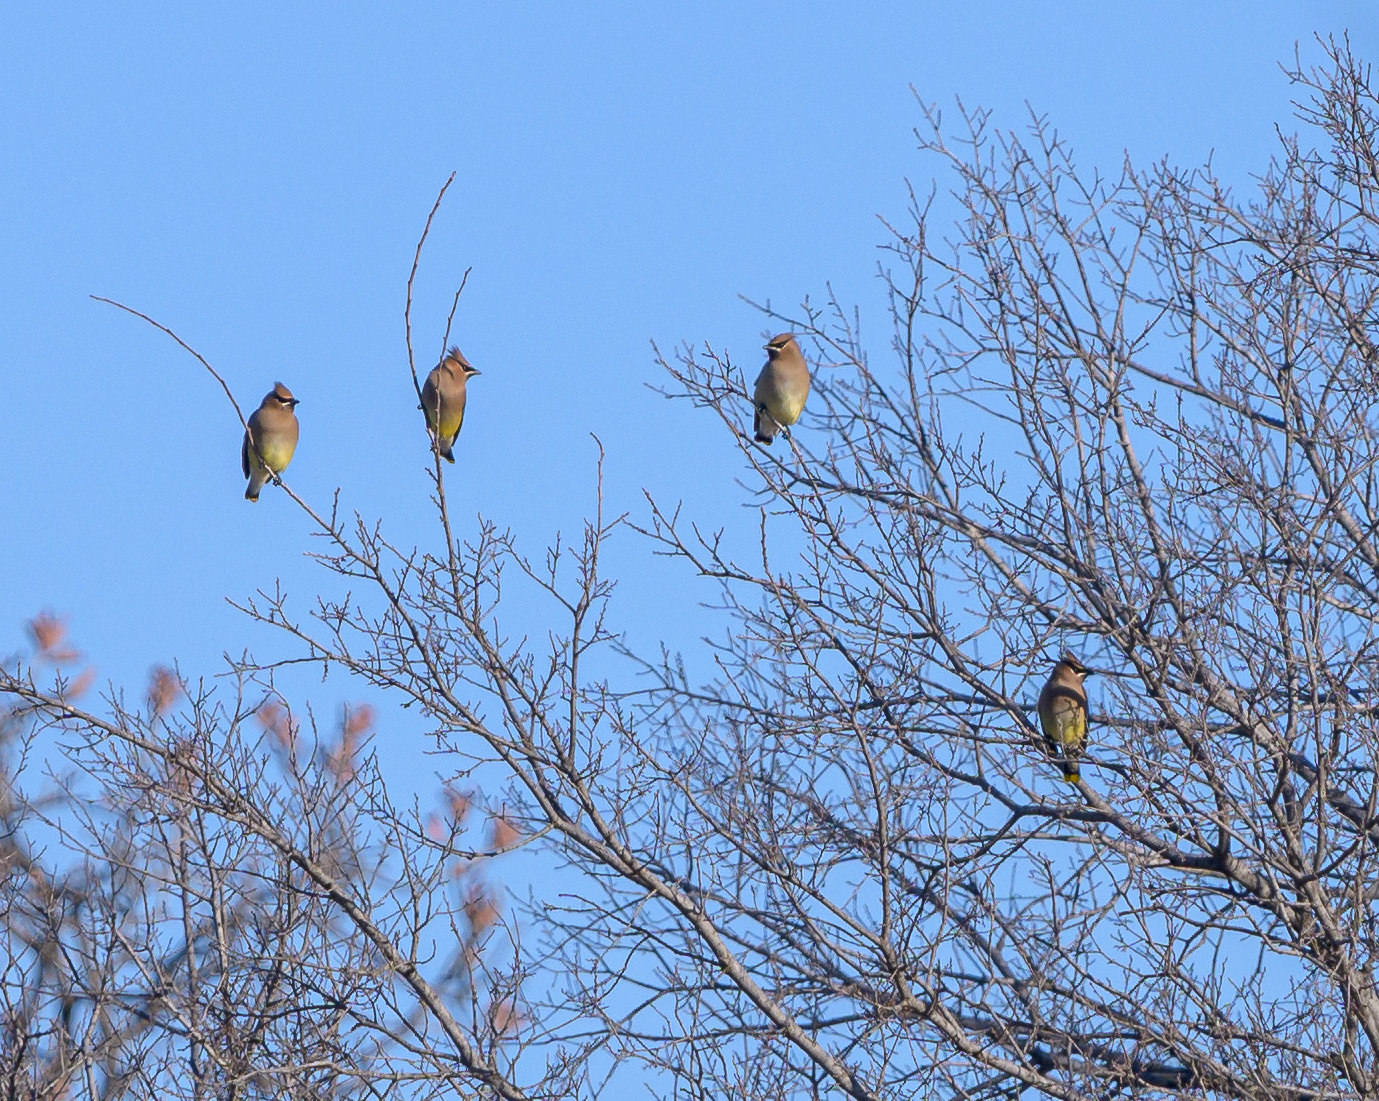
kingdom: Animalia
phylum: Chordata
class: Aves
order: Passeriformes
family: Bombycillidae
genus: Bombycilla
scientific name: Bombycilla cedrorum
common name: Cedar waxwing
